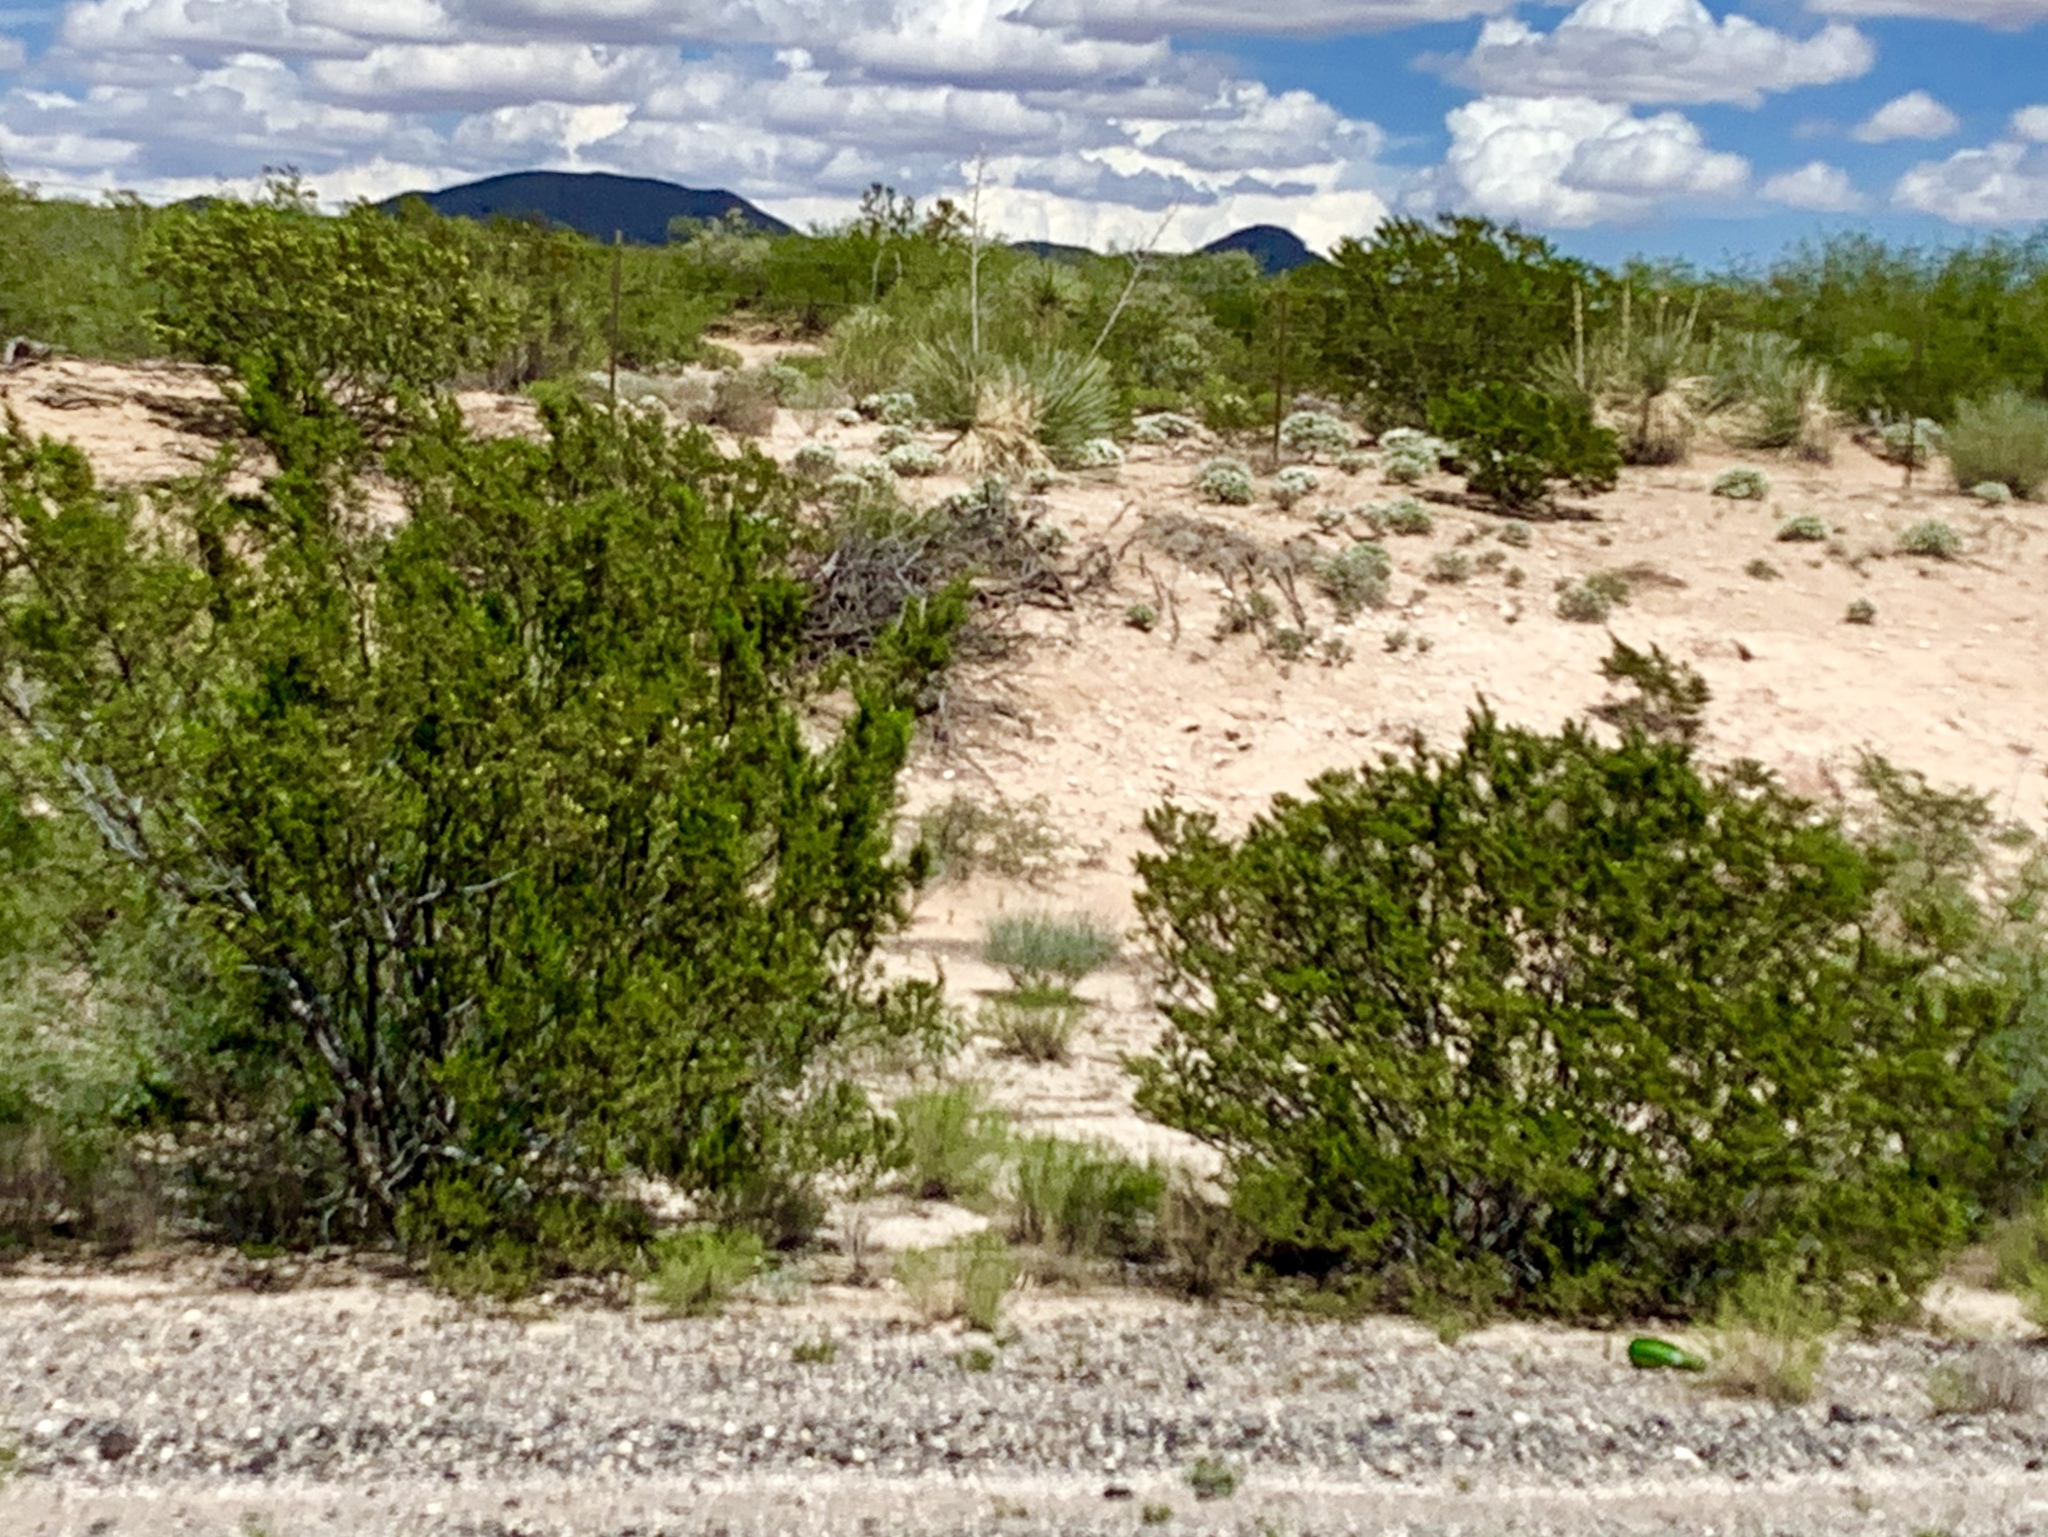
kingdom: Plantae
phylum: Tracheophyta
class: Magnoliopsida
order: Zygophyllales
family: Zygophyllaceae
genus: Larrea
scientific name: Larrea tridentata
